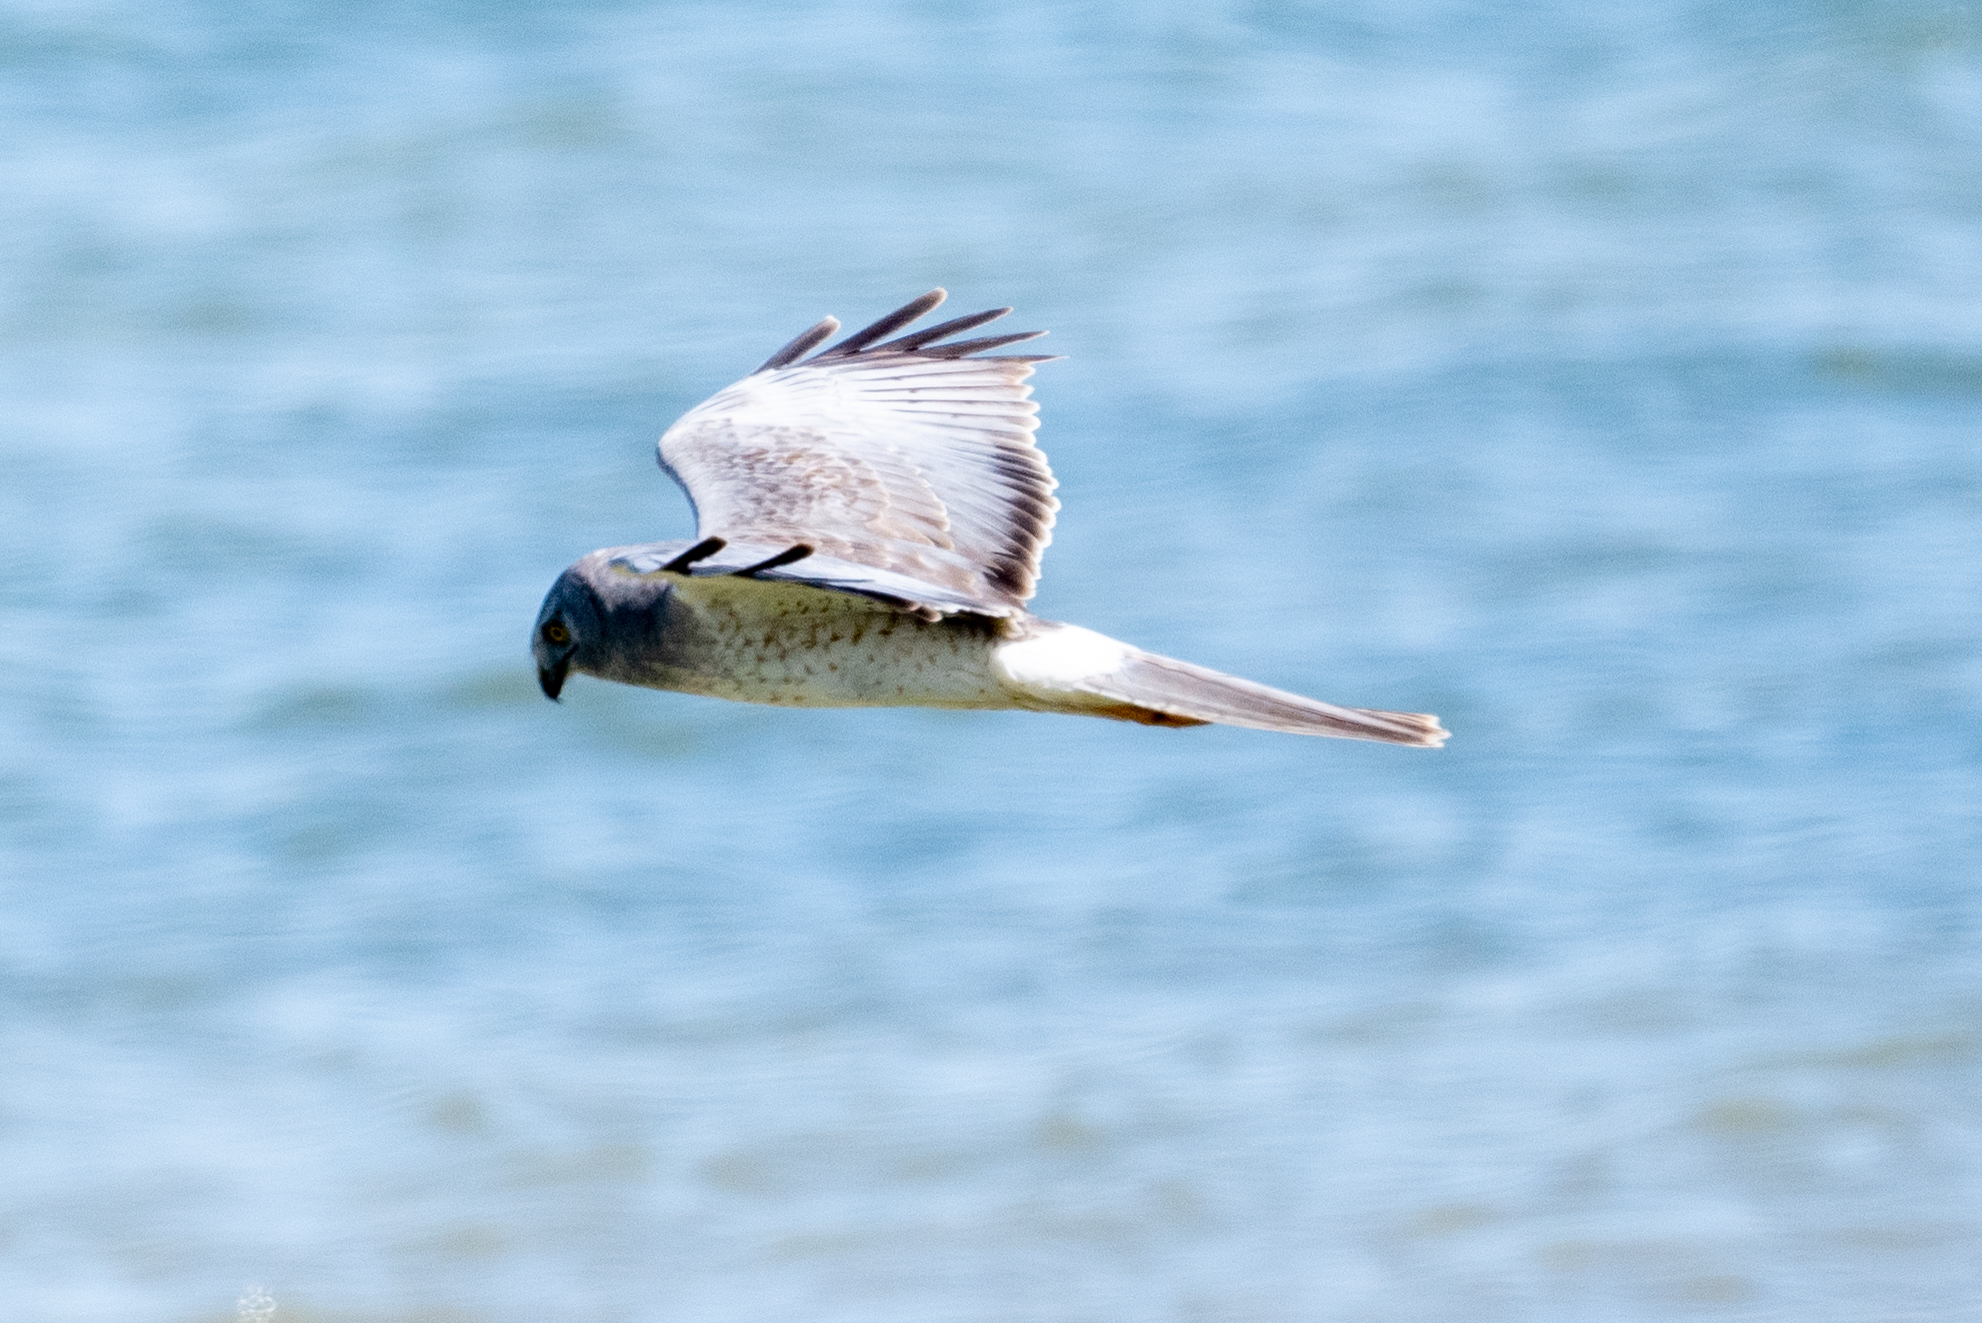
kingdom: Animalia
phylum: Chordata
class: Aves
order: Accipitriformes
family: Accipitridae
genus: Circus
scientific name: Circus cyaneus
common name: Hen harrier
